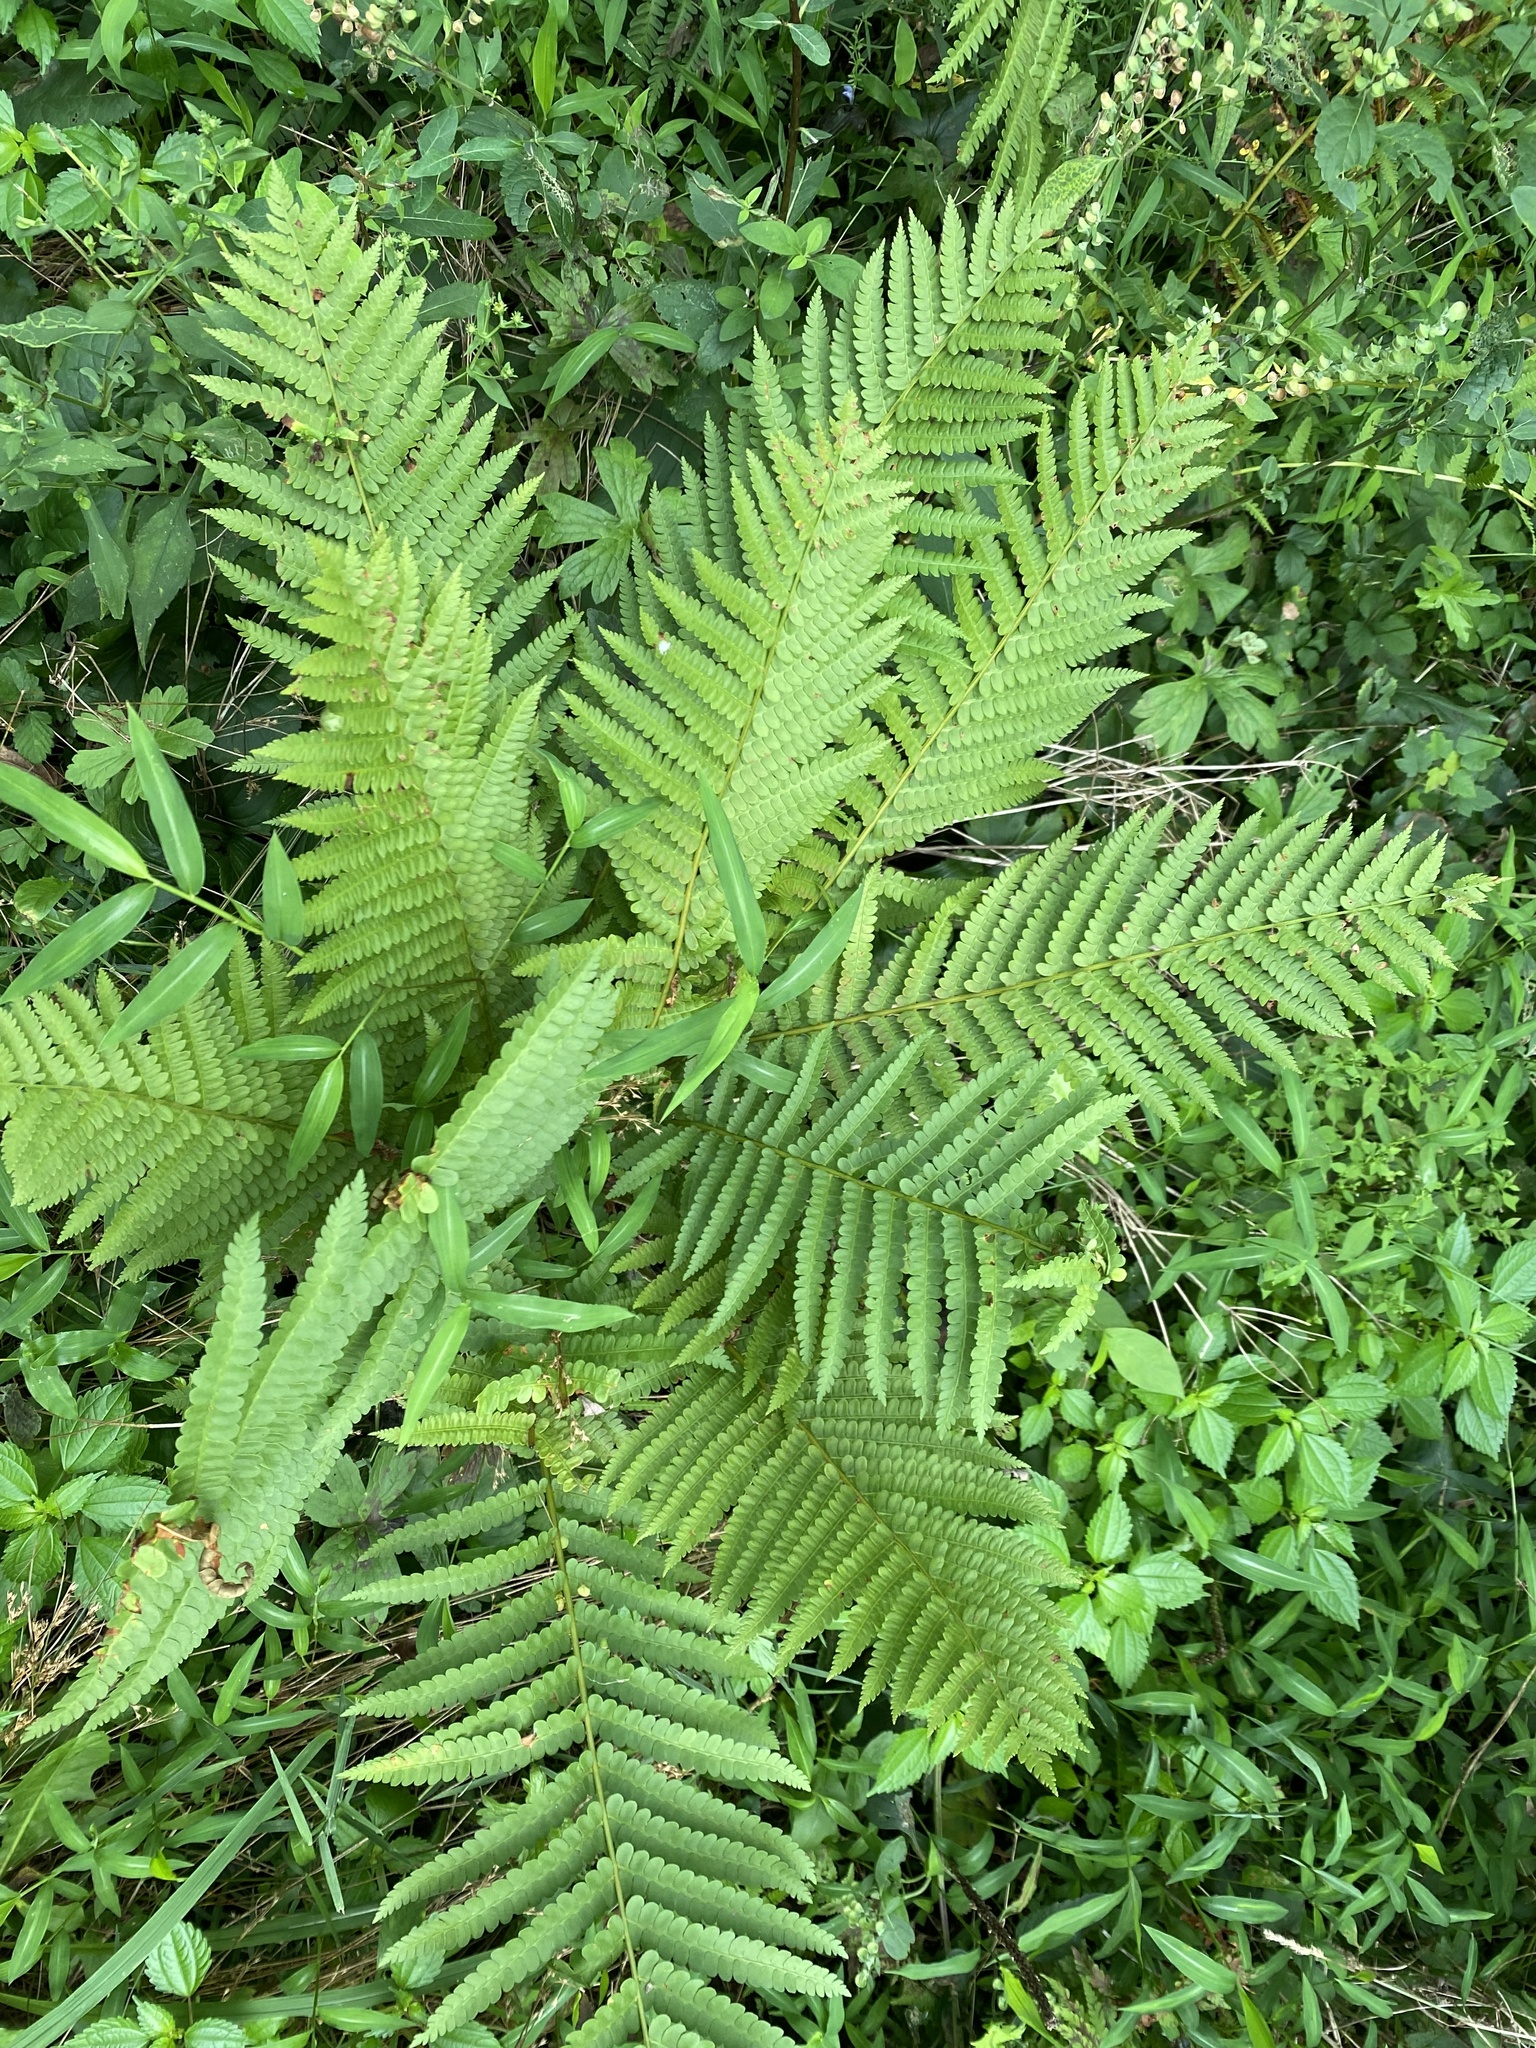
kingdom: Plantae
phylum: Tracheophyta
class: Polypodiopsida
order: Osmundales
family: Osmundaceae
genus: Osmundastrum
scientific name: Osmundastrum cinnamomeum
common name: Cinnamon fern
